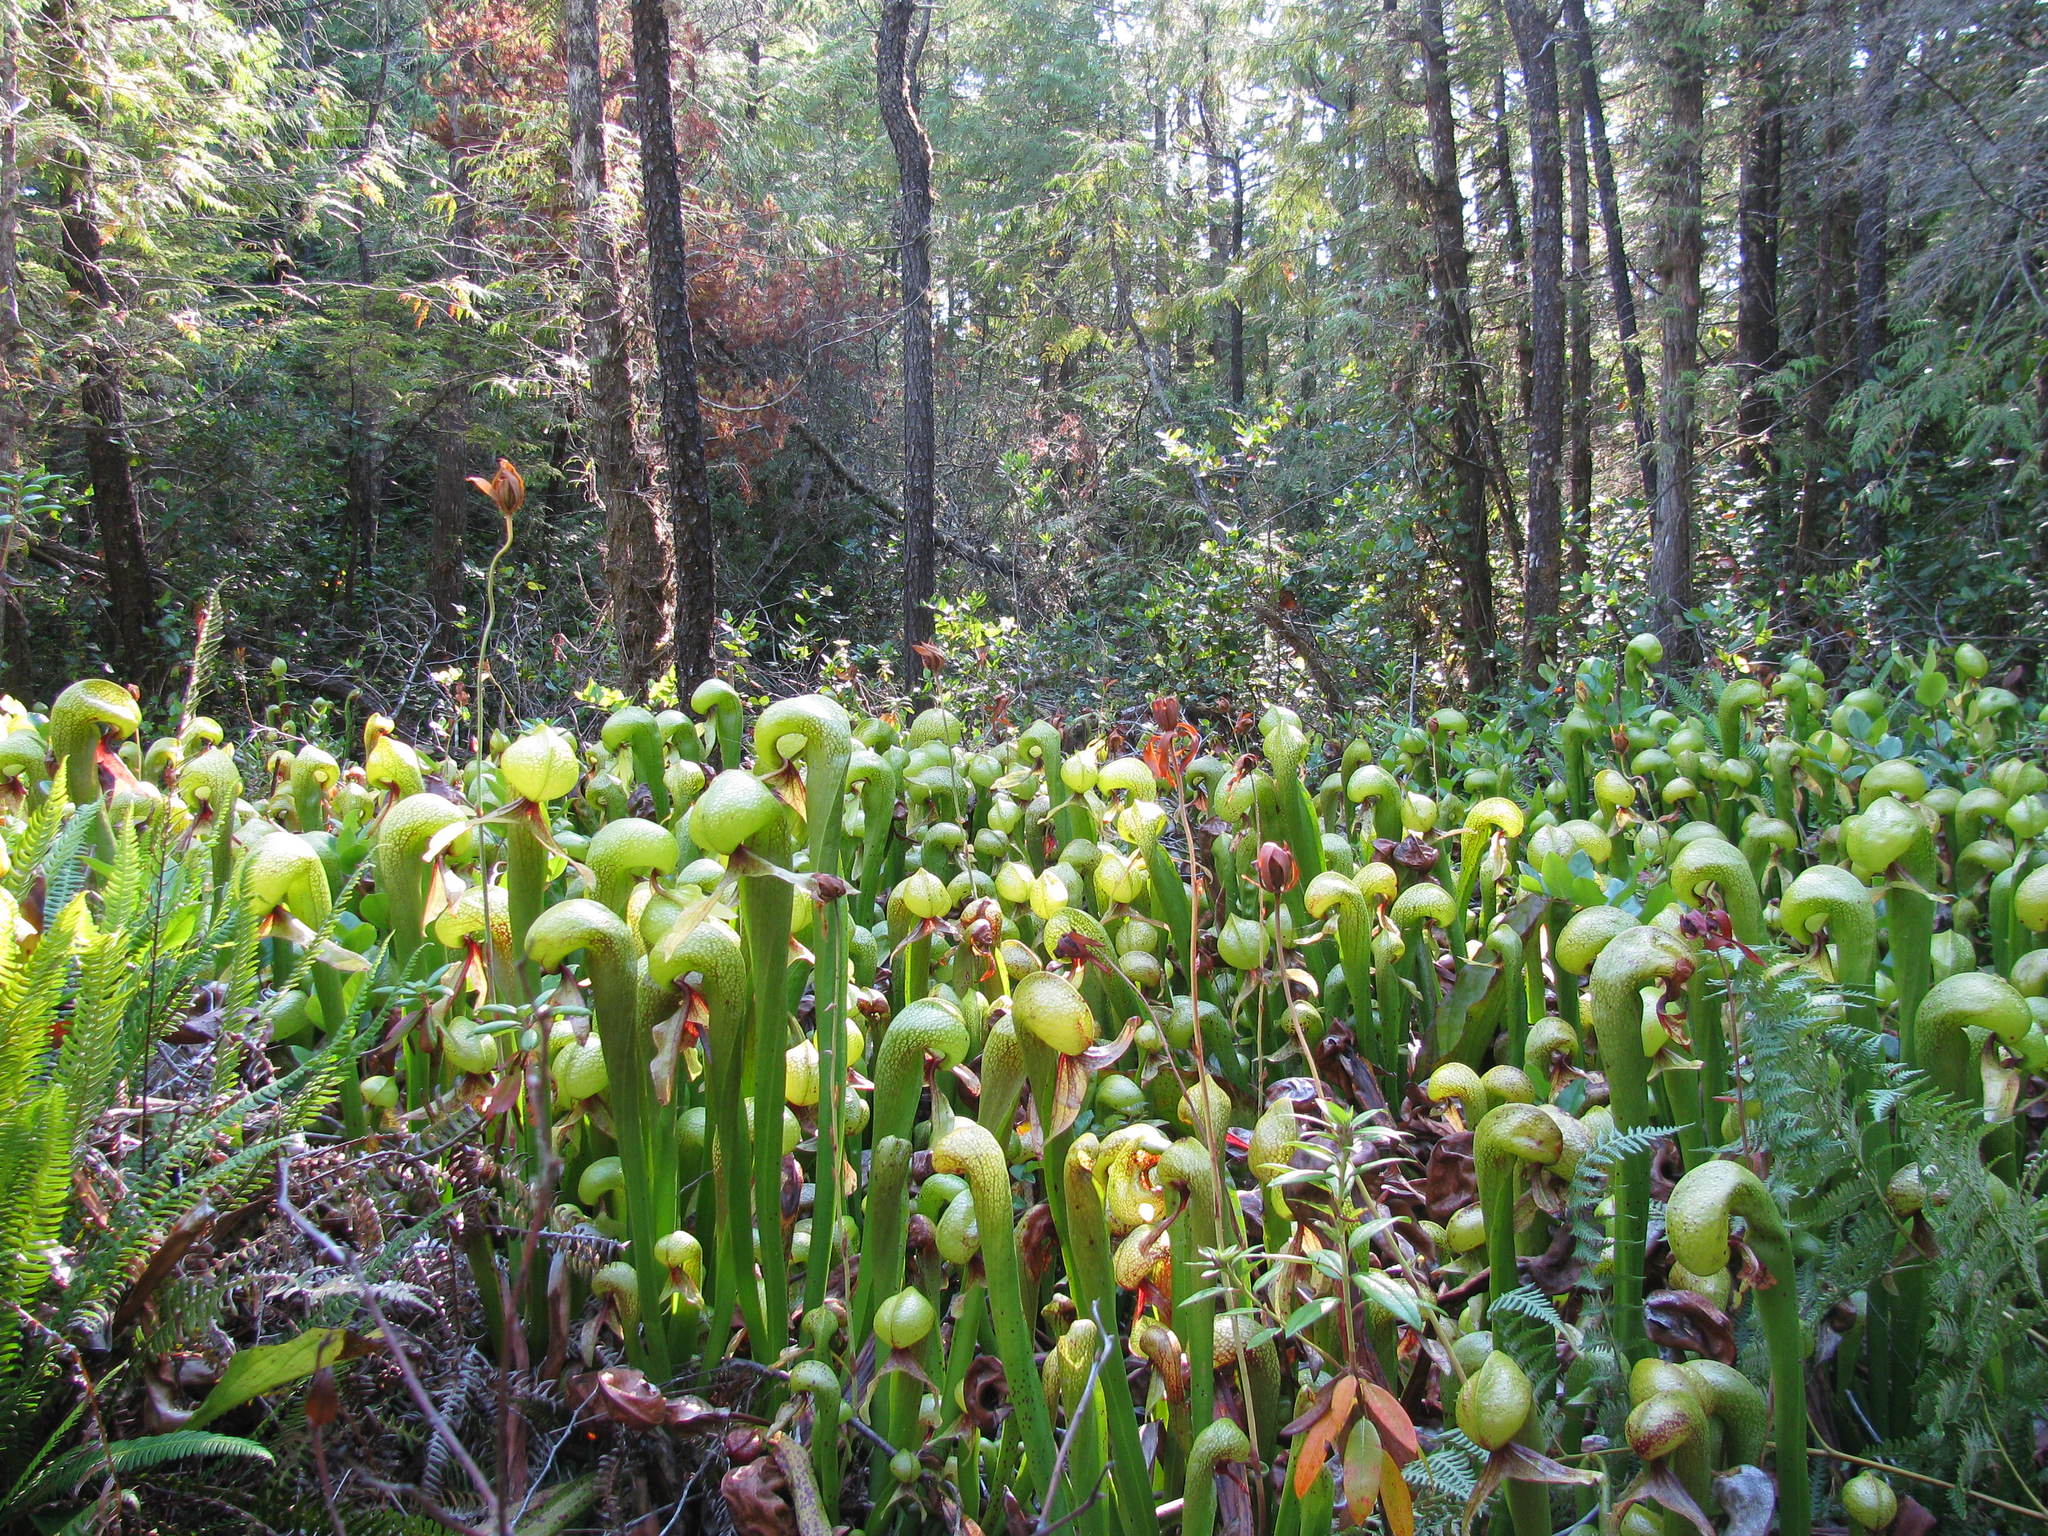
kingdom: Plantae
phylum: Tracheophyta
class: Magnoliopsida
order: Ericales
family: Sarraceniaceae
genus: Darlingtonia
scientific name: Darlingtonia californica
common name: California pitcher plant
